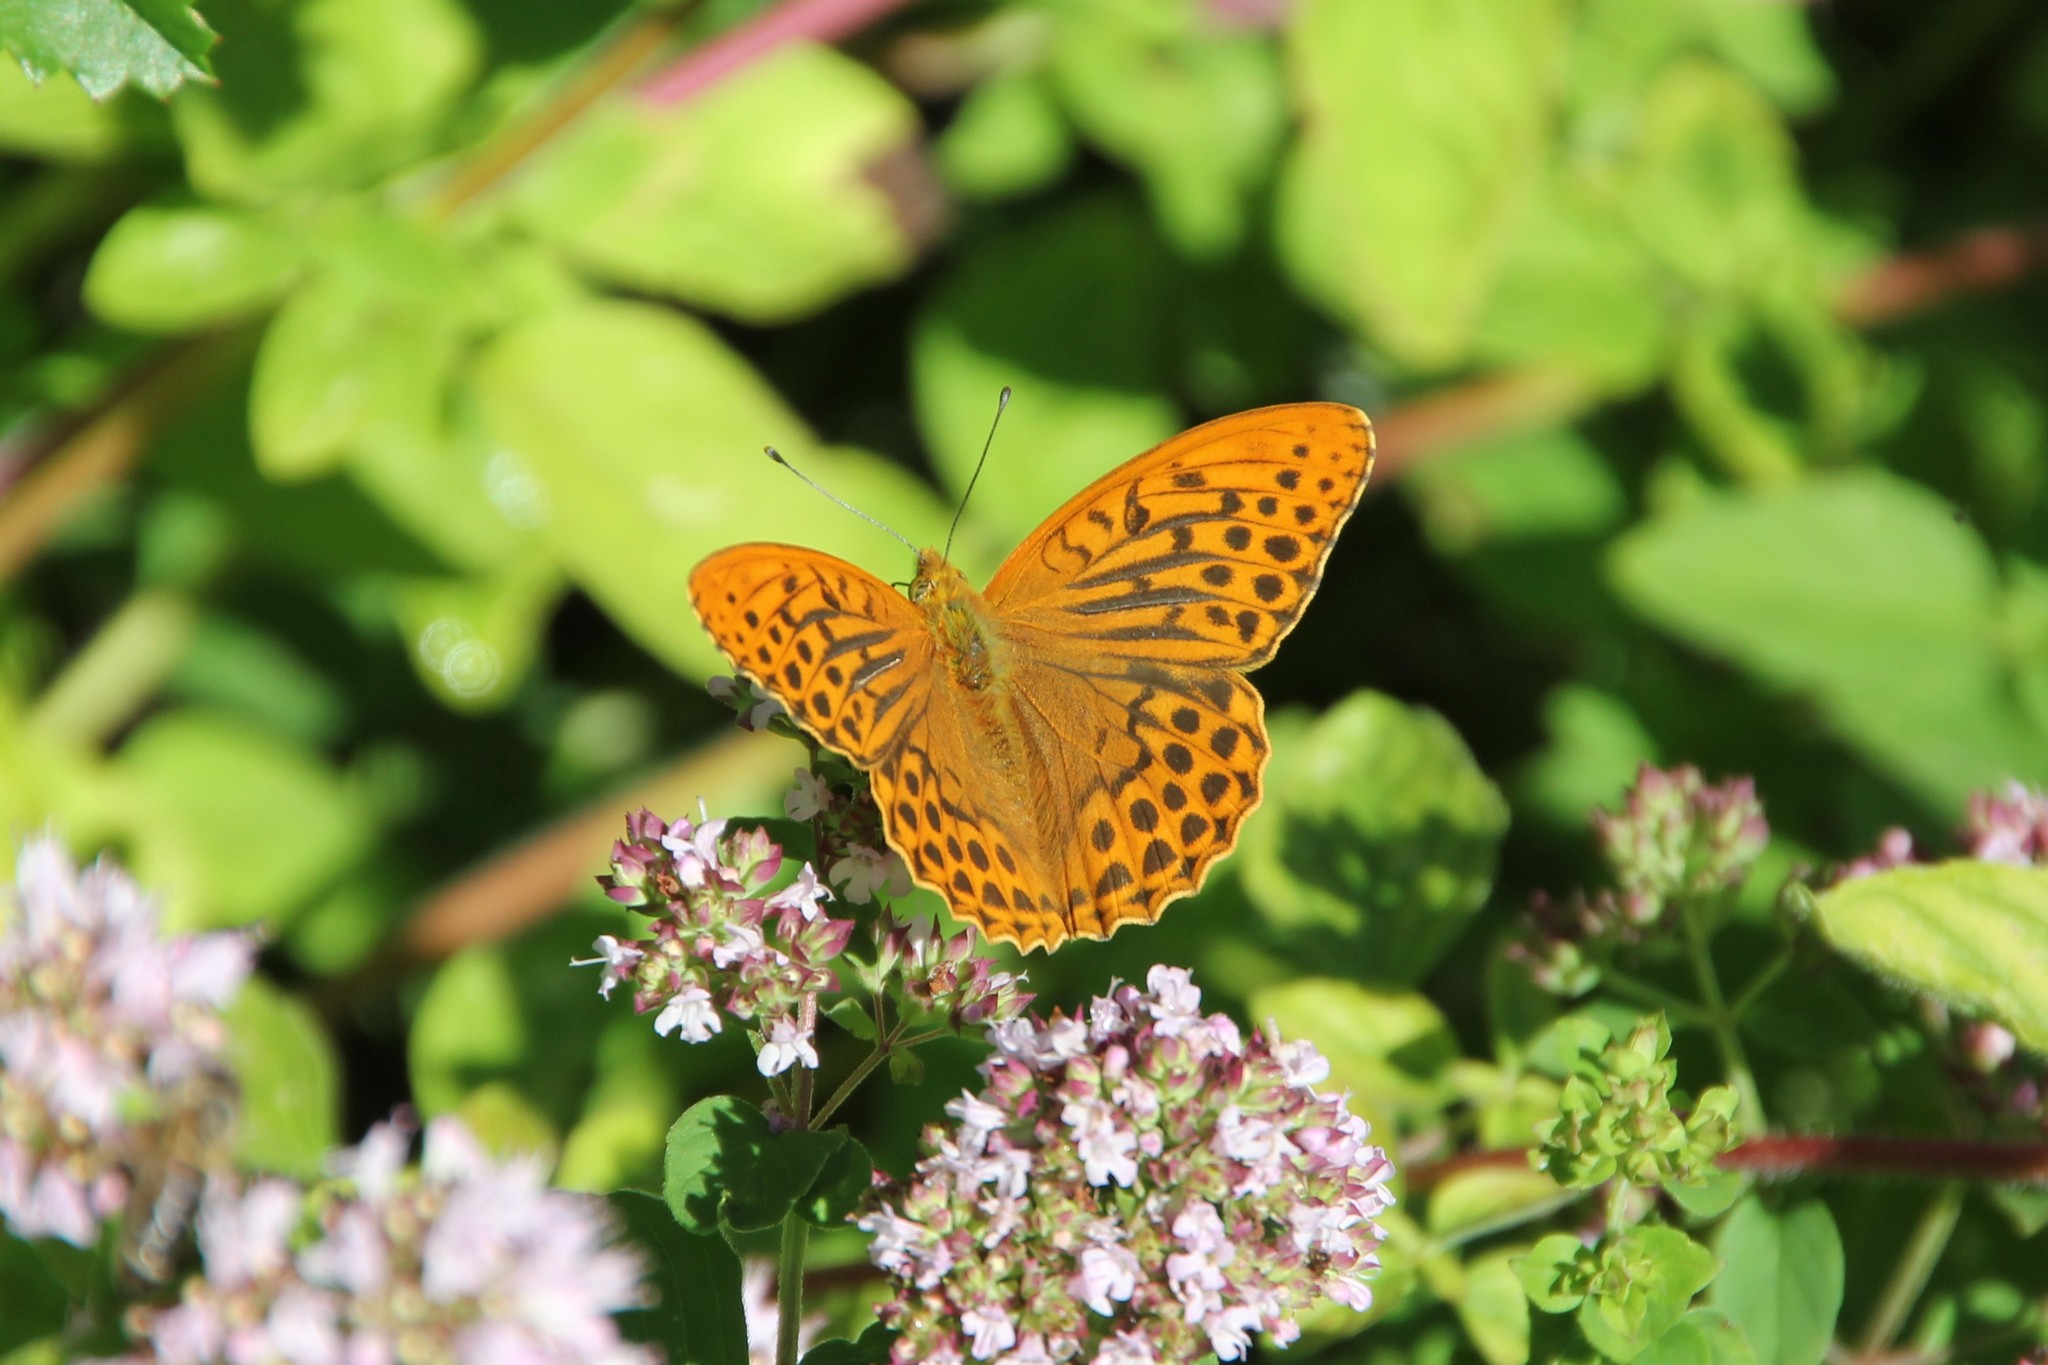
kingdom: Animalia
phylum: Arthropoda
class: Insecta
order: Lepidoptera
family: Nymphalidae
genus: Argynnis
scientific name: Argynnis paphia
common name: Silver-washed fritillary
